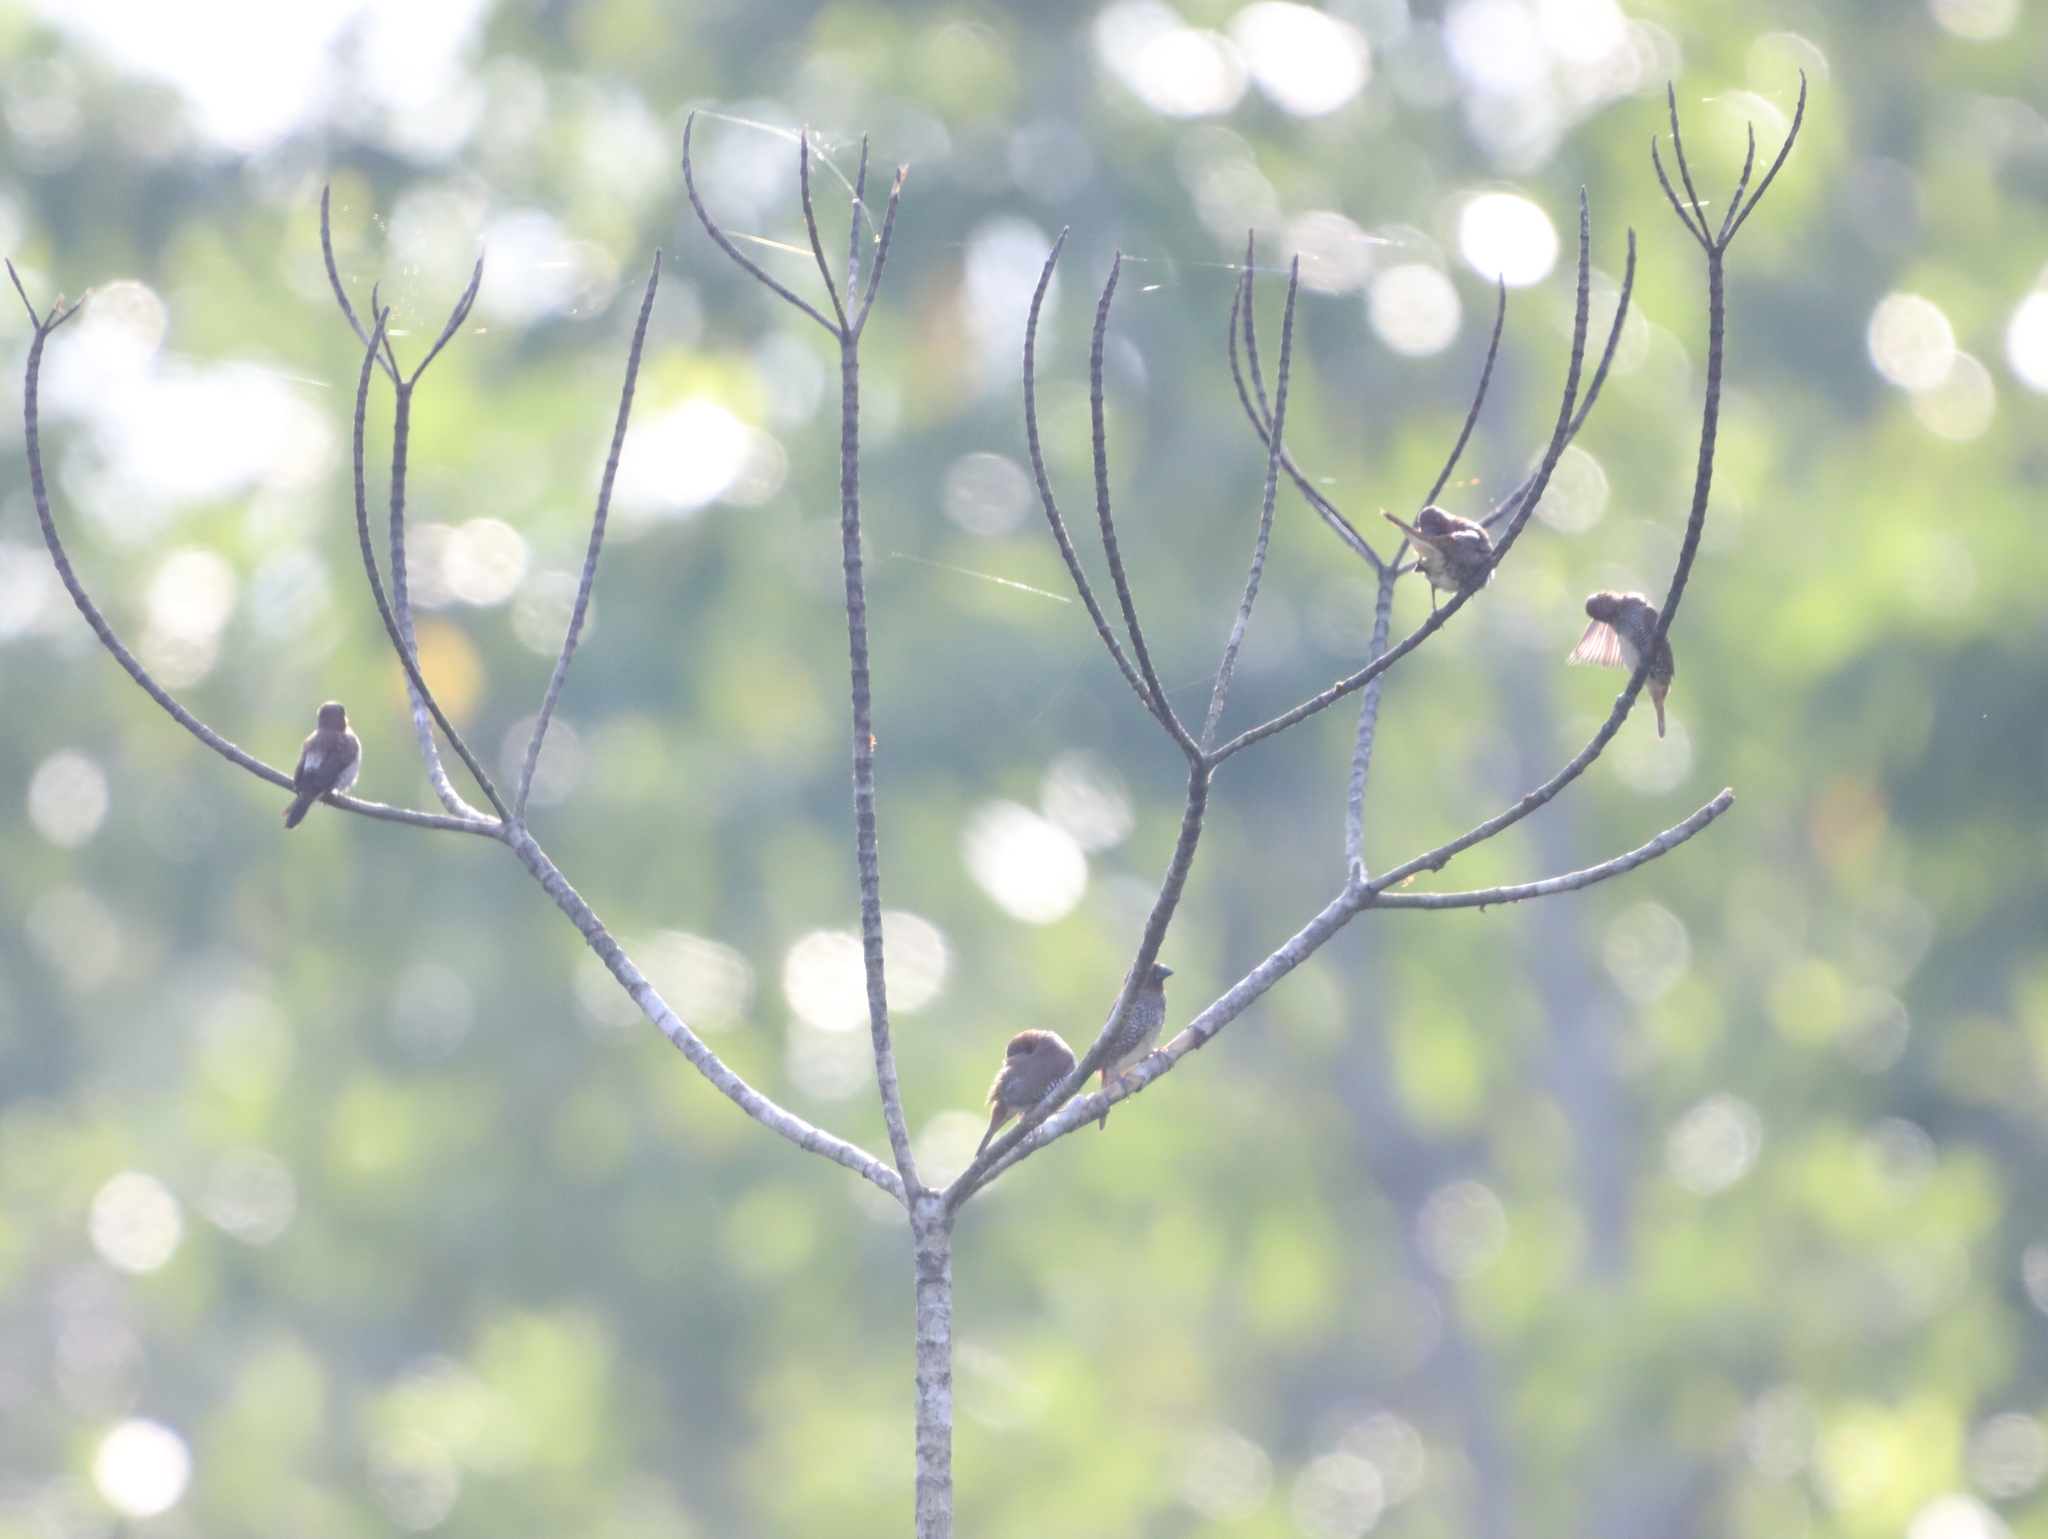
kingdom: Animalia
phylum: Chordata
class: Aves
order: Passeriformes
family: Estrildidae
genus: Lonchura
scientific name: Lonchura punctulata
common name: Scaly-breasted munia
